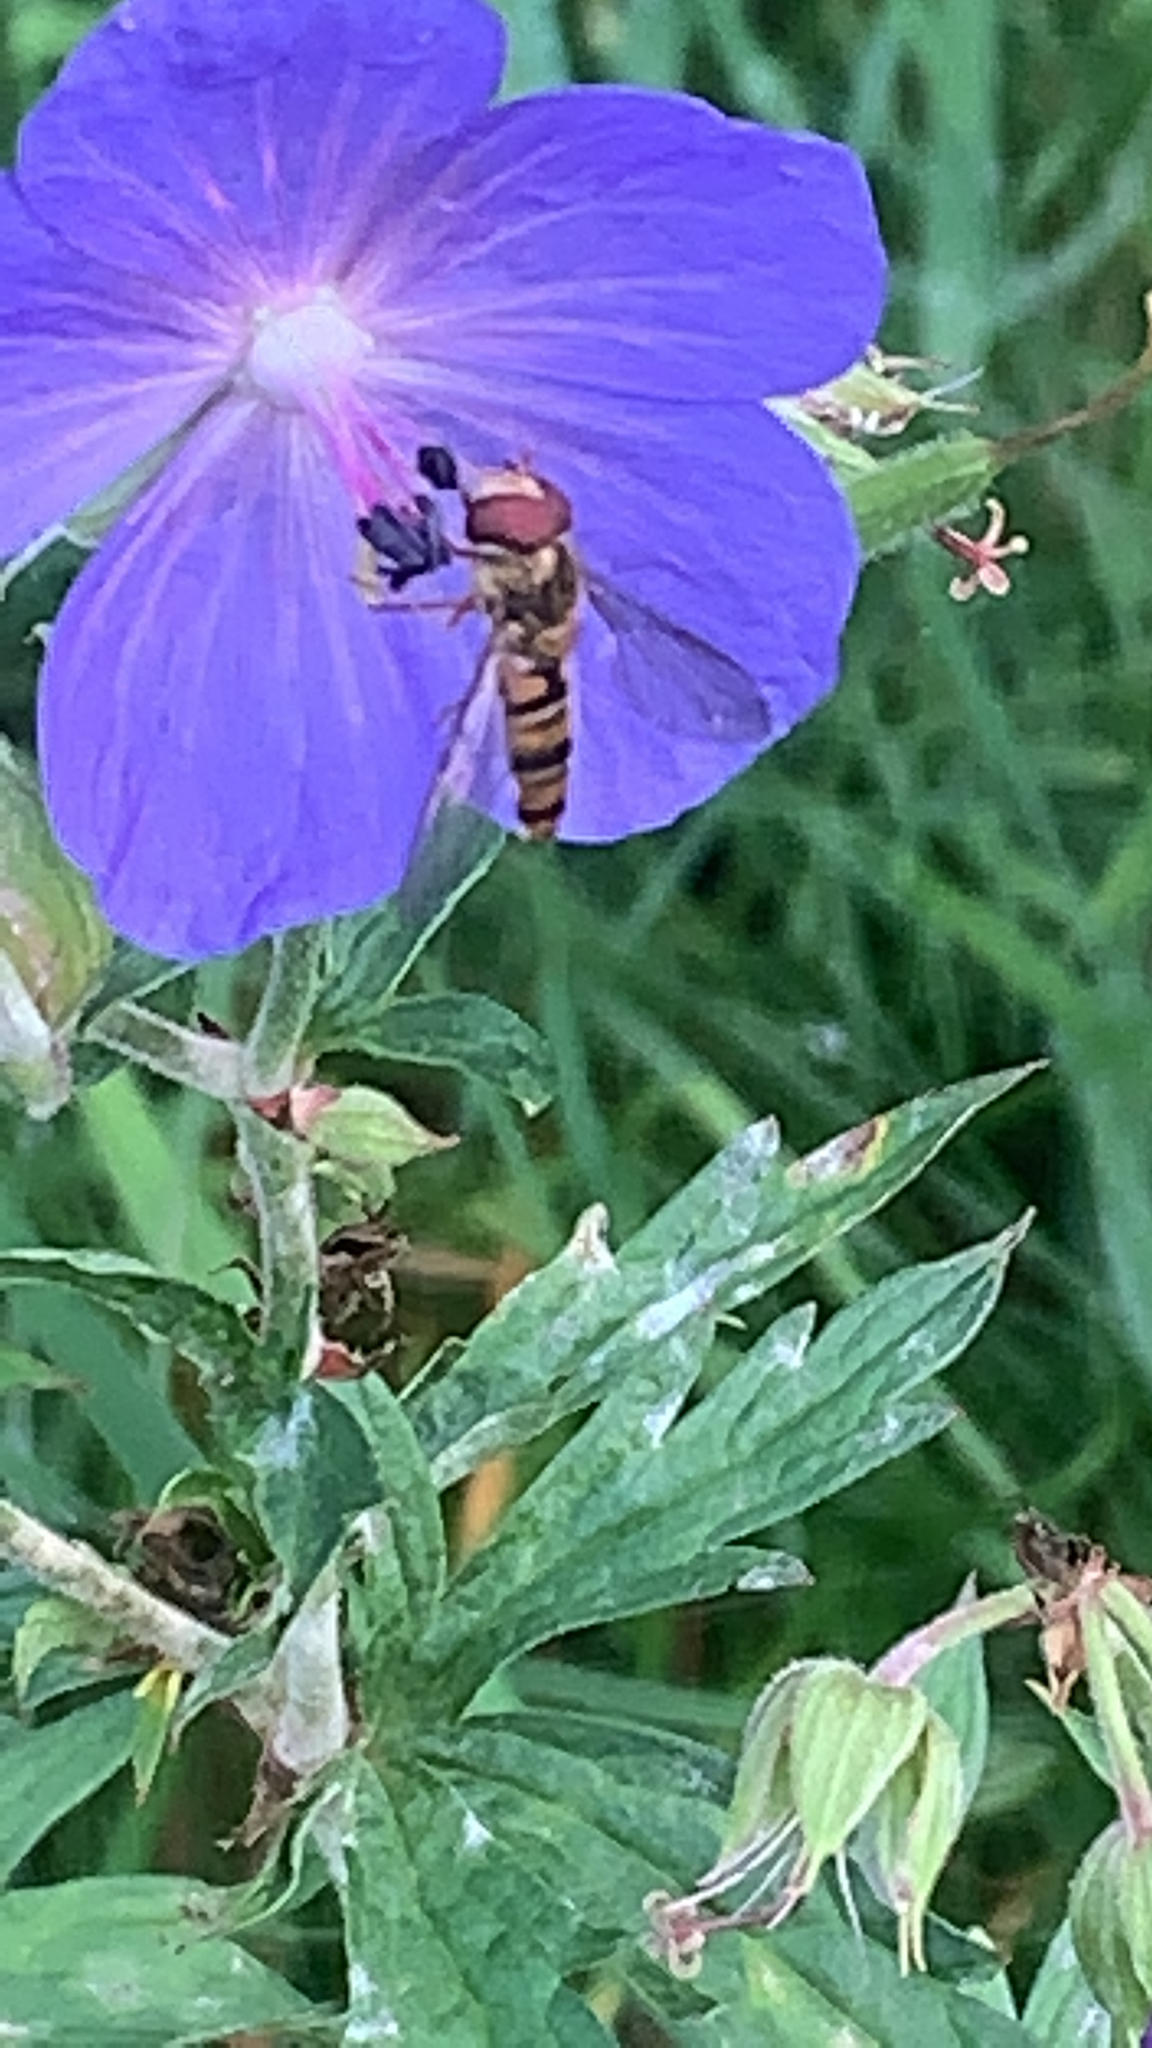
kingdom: Animalia
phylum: Arthropoda
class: Insecta
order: Diptera
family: Syrphidae
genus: Episyrphus
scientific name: Episyrphus balteatus
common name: Marmalade hoverfly
